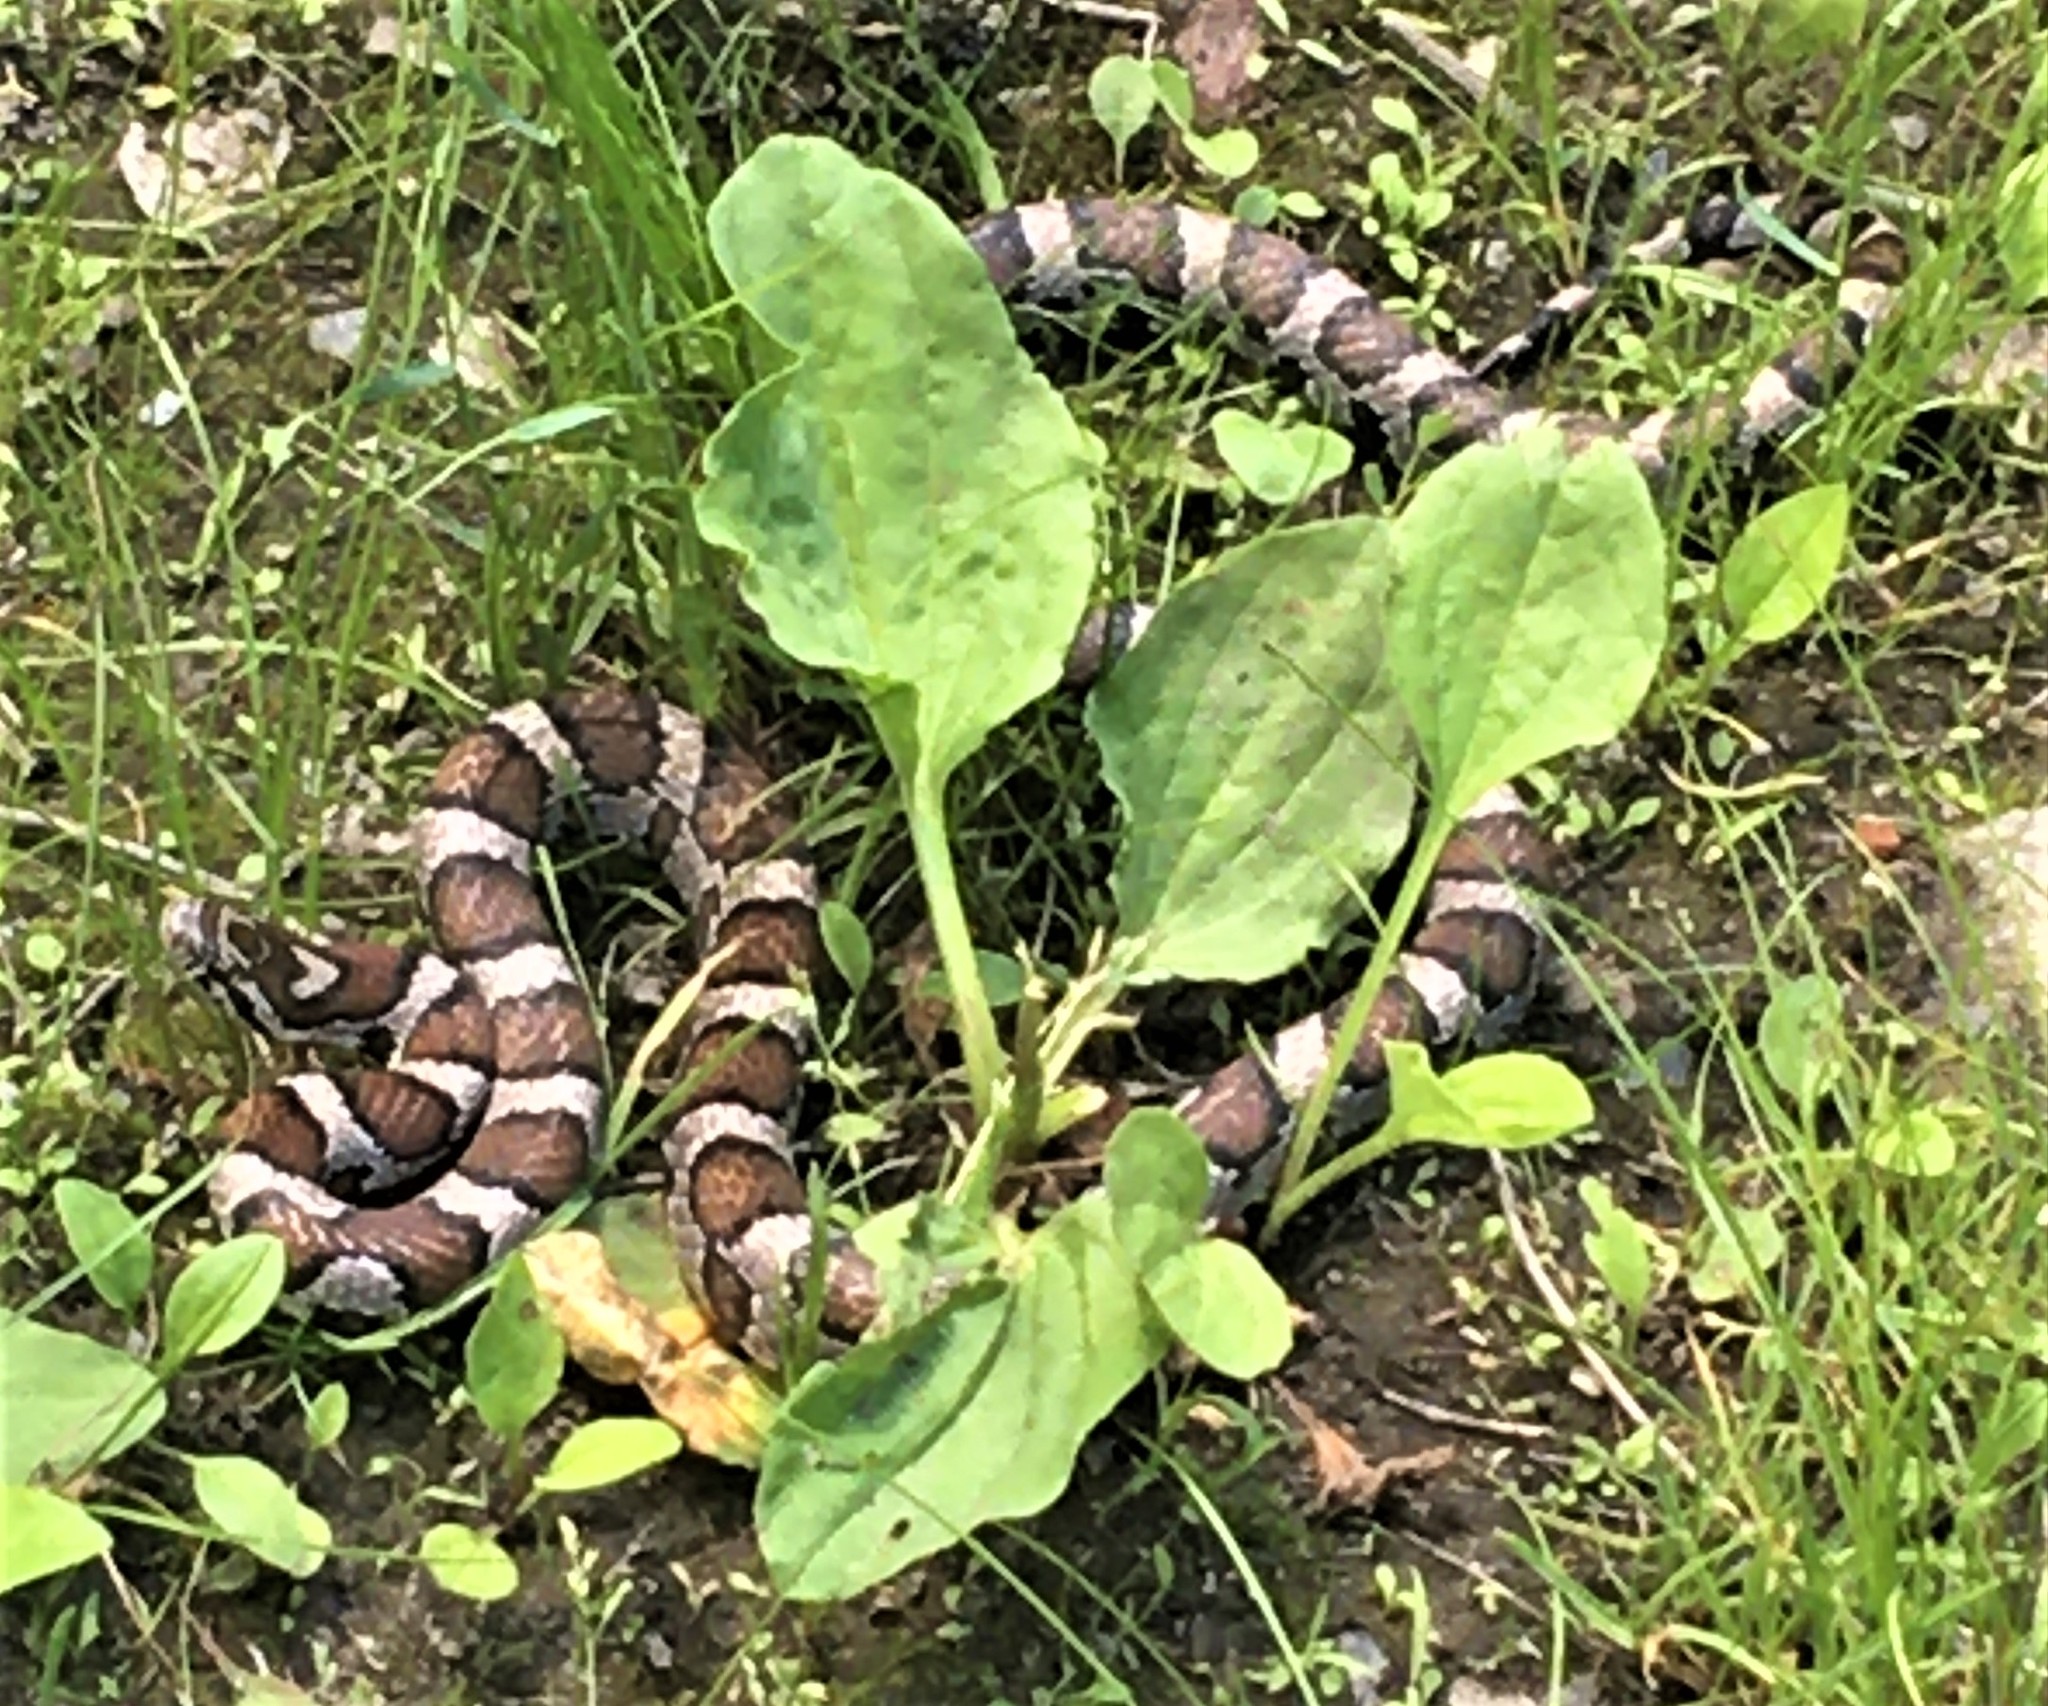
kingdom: Animalia
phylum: Chordata
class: Squamata
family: Colubridae
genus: Lampropeltis
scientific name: Lampropeltis triangulum
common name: Eastern milksnake
